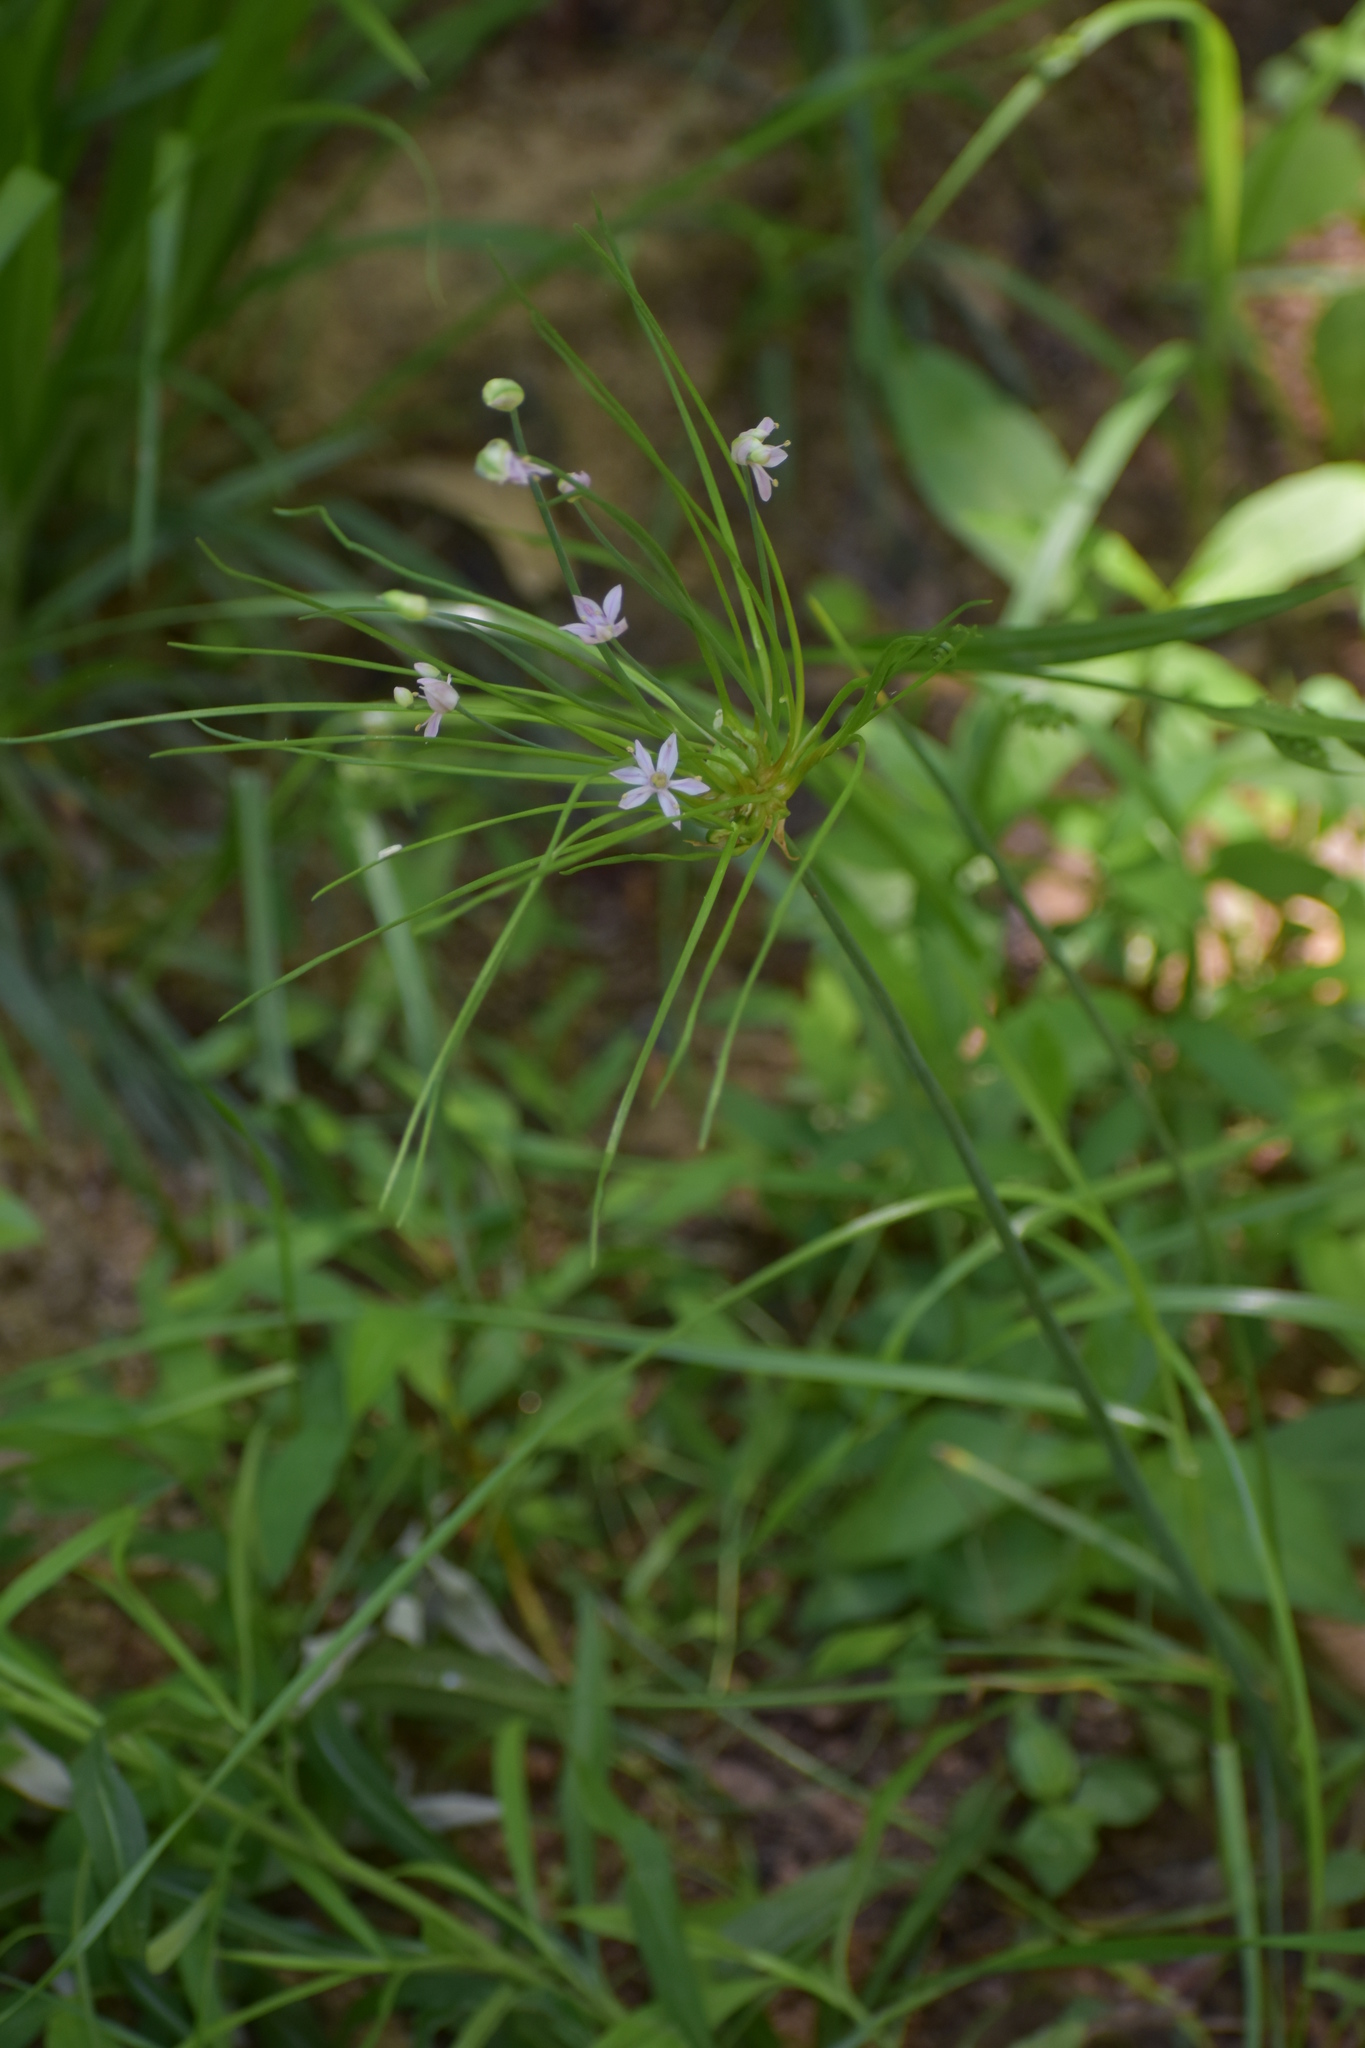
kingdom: Plantae
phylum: Tracheophyta
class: Liliopsida
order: Asparagales
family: Amaryllidaceae
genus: Allium
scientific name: Allium canadense
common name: Meadow garlic
